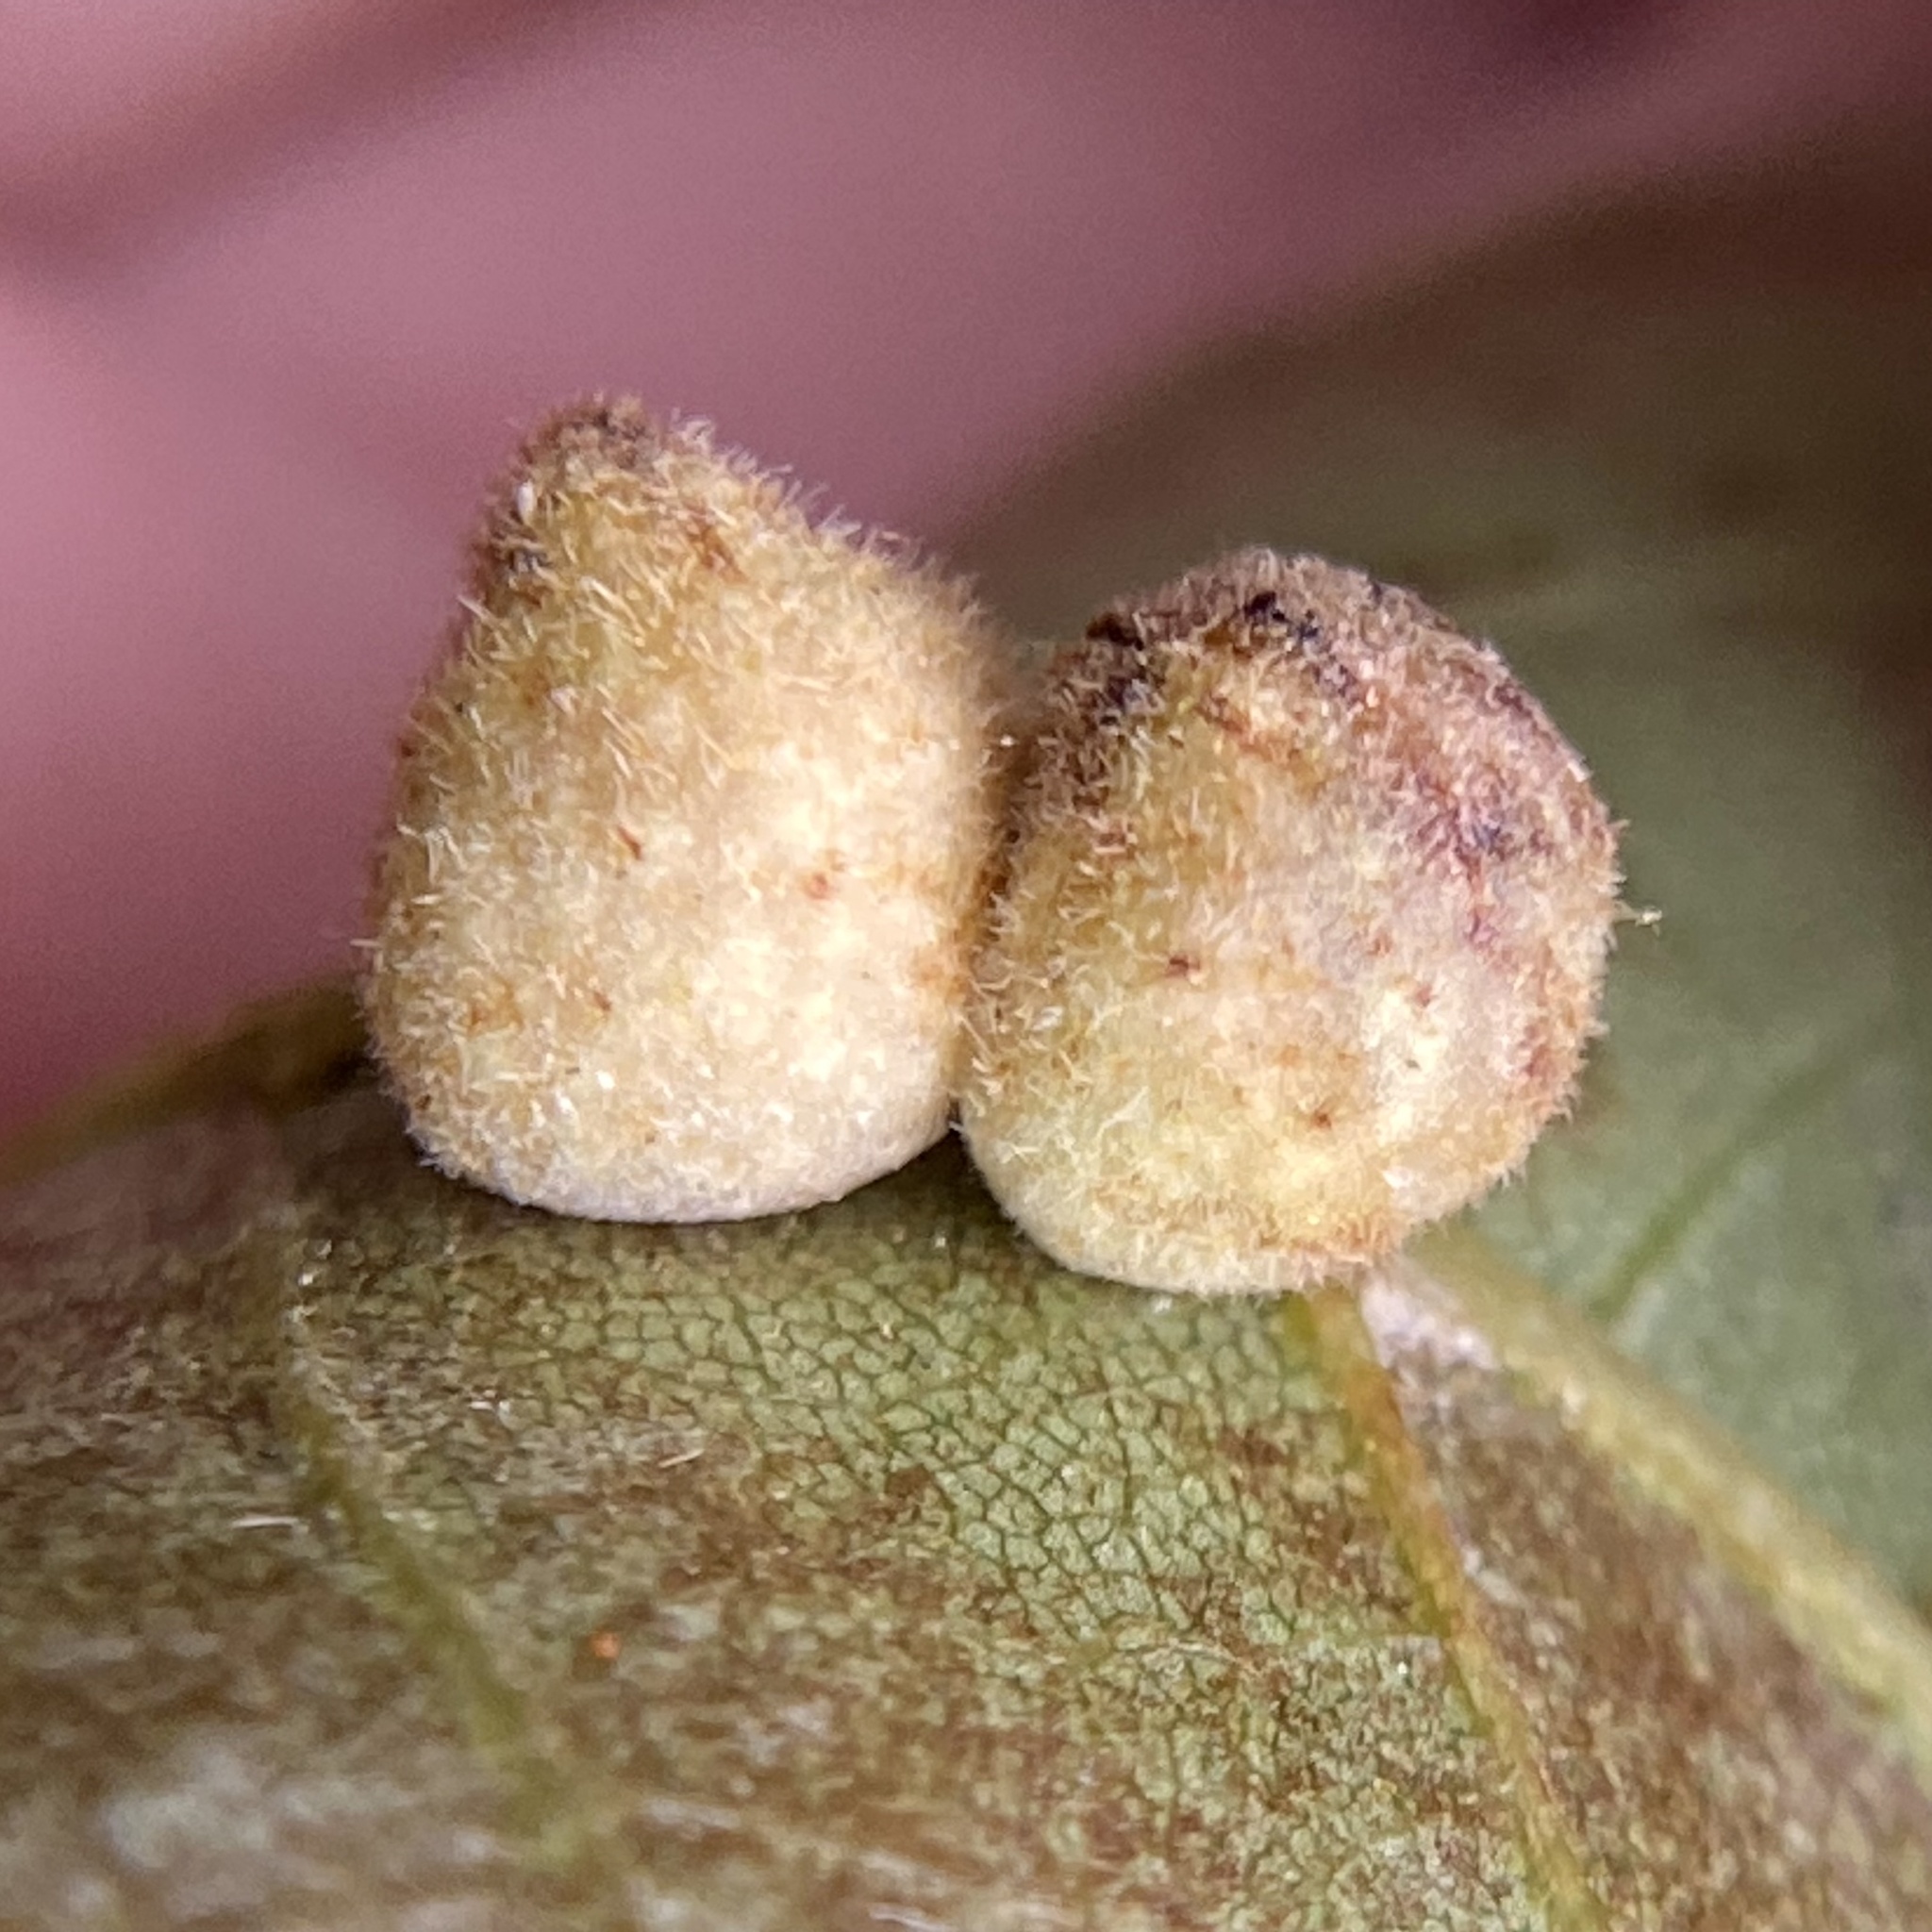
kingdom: Animalia
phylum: Arthropoda
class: Insecta
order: Diptera
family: Cecidomyiidae
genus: Caryomyia
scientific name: Caryomyia persicoides
